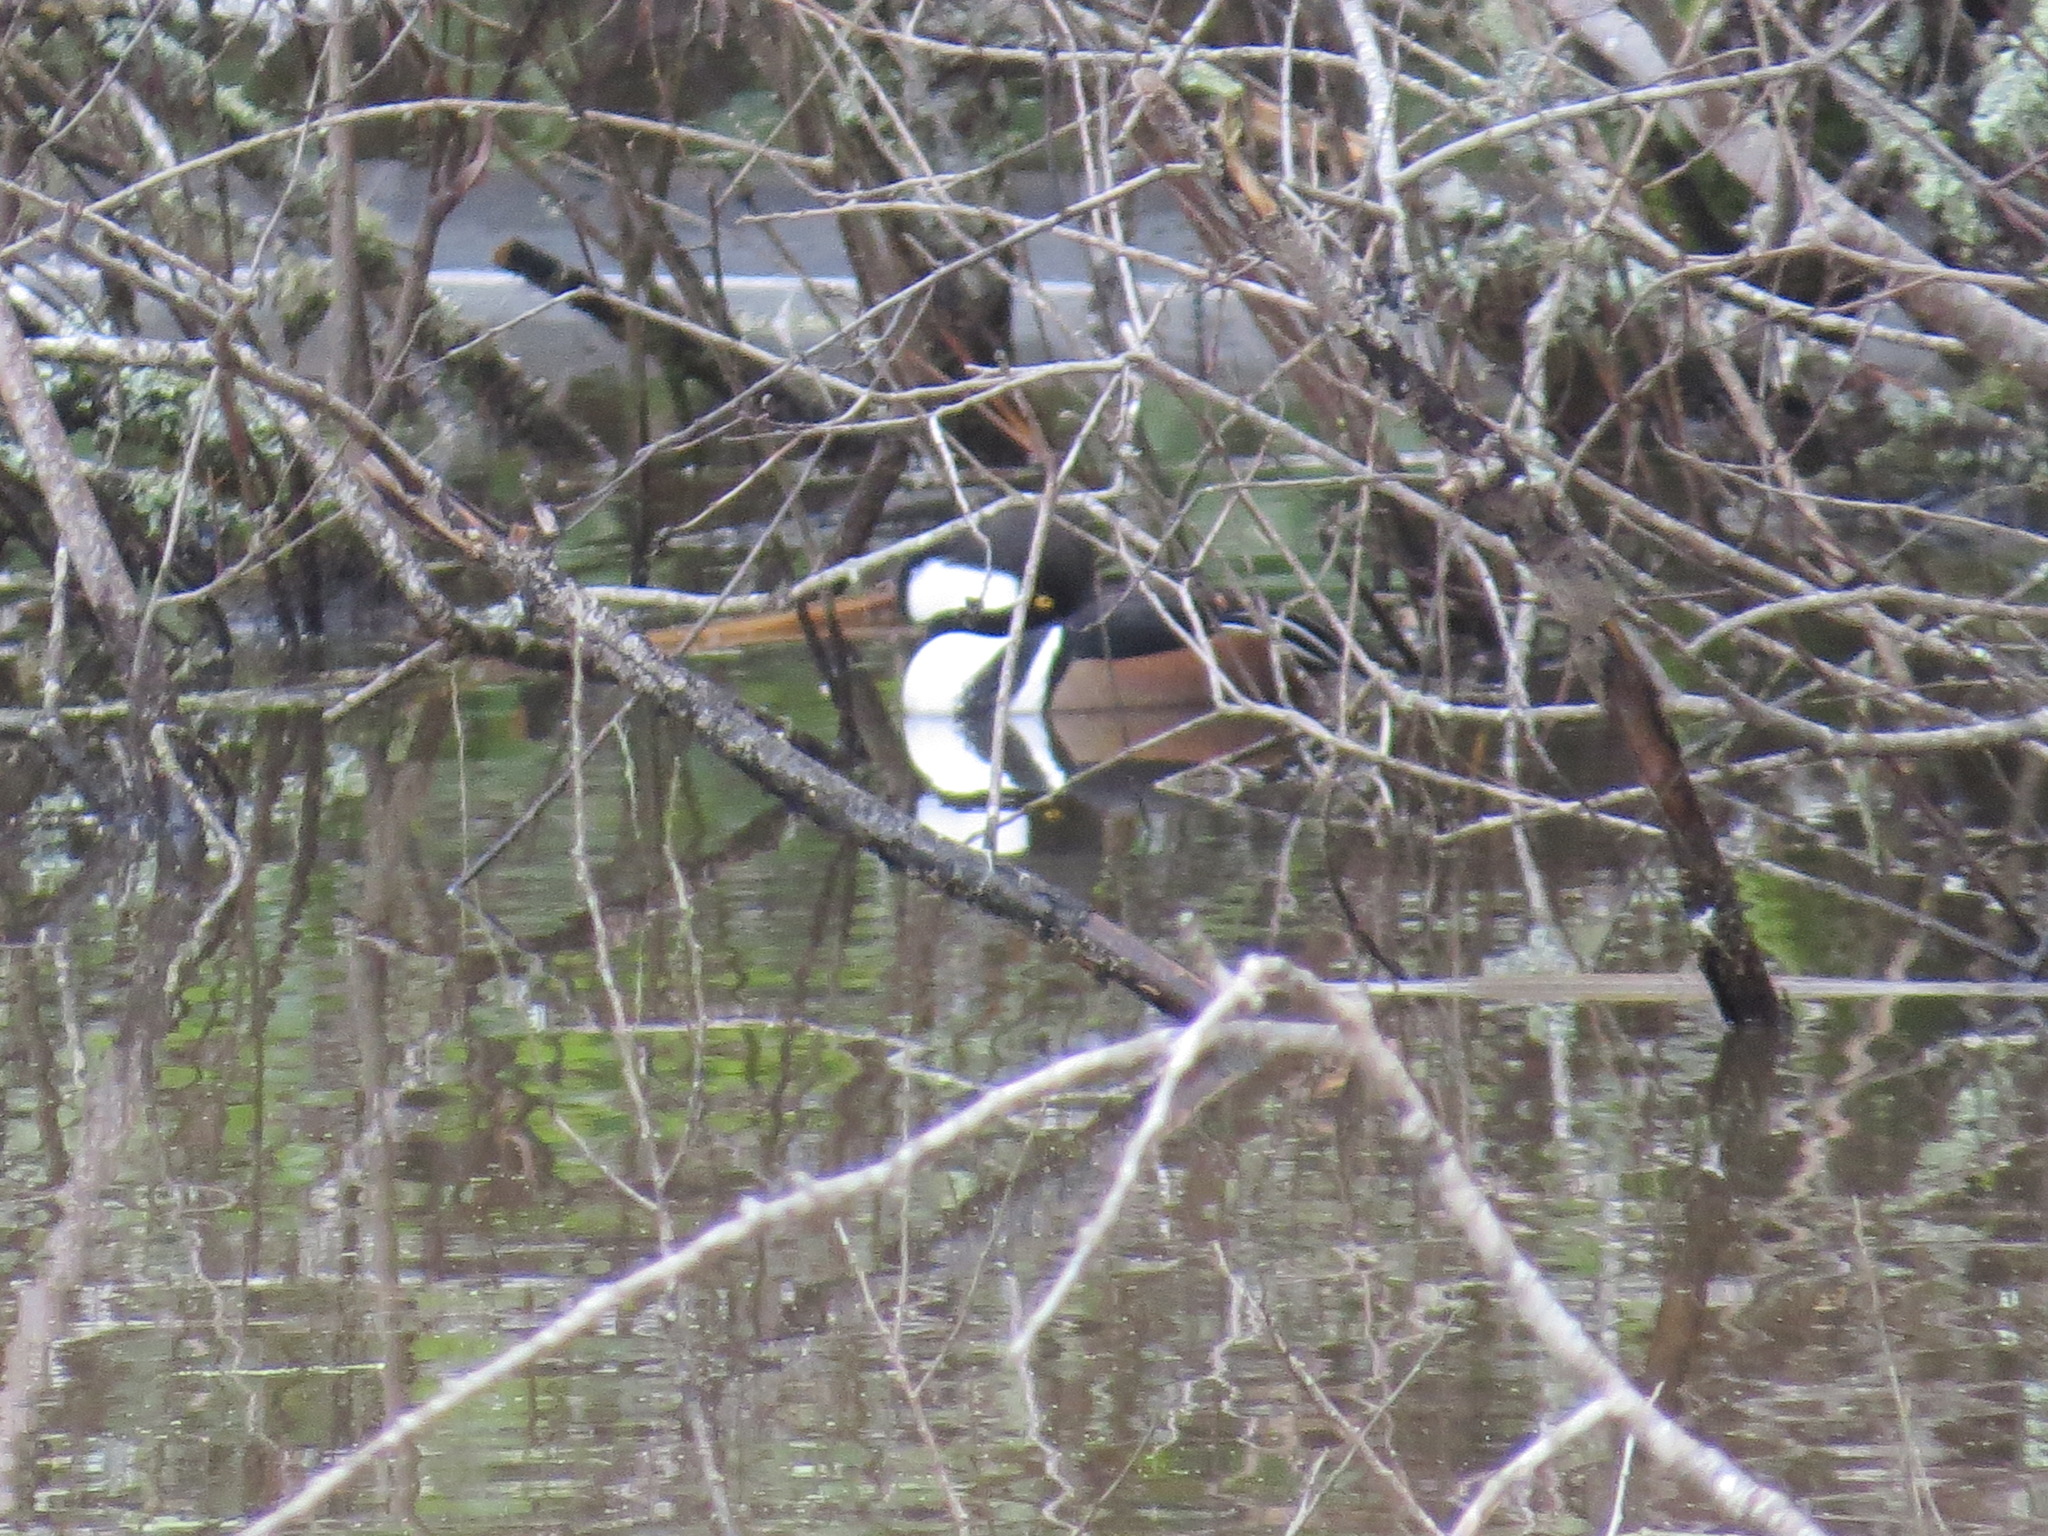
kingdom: Animalia
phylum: Chordata
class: Aves
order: Anseriformes
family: Anatidae
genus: Lophodytes
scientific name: Lophodytes cucullatus
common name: Hooded merganser
